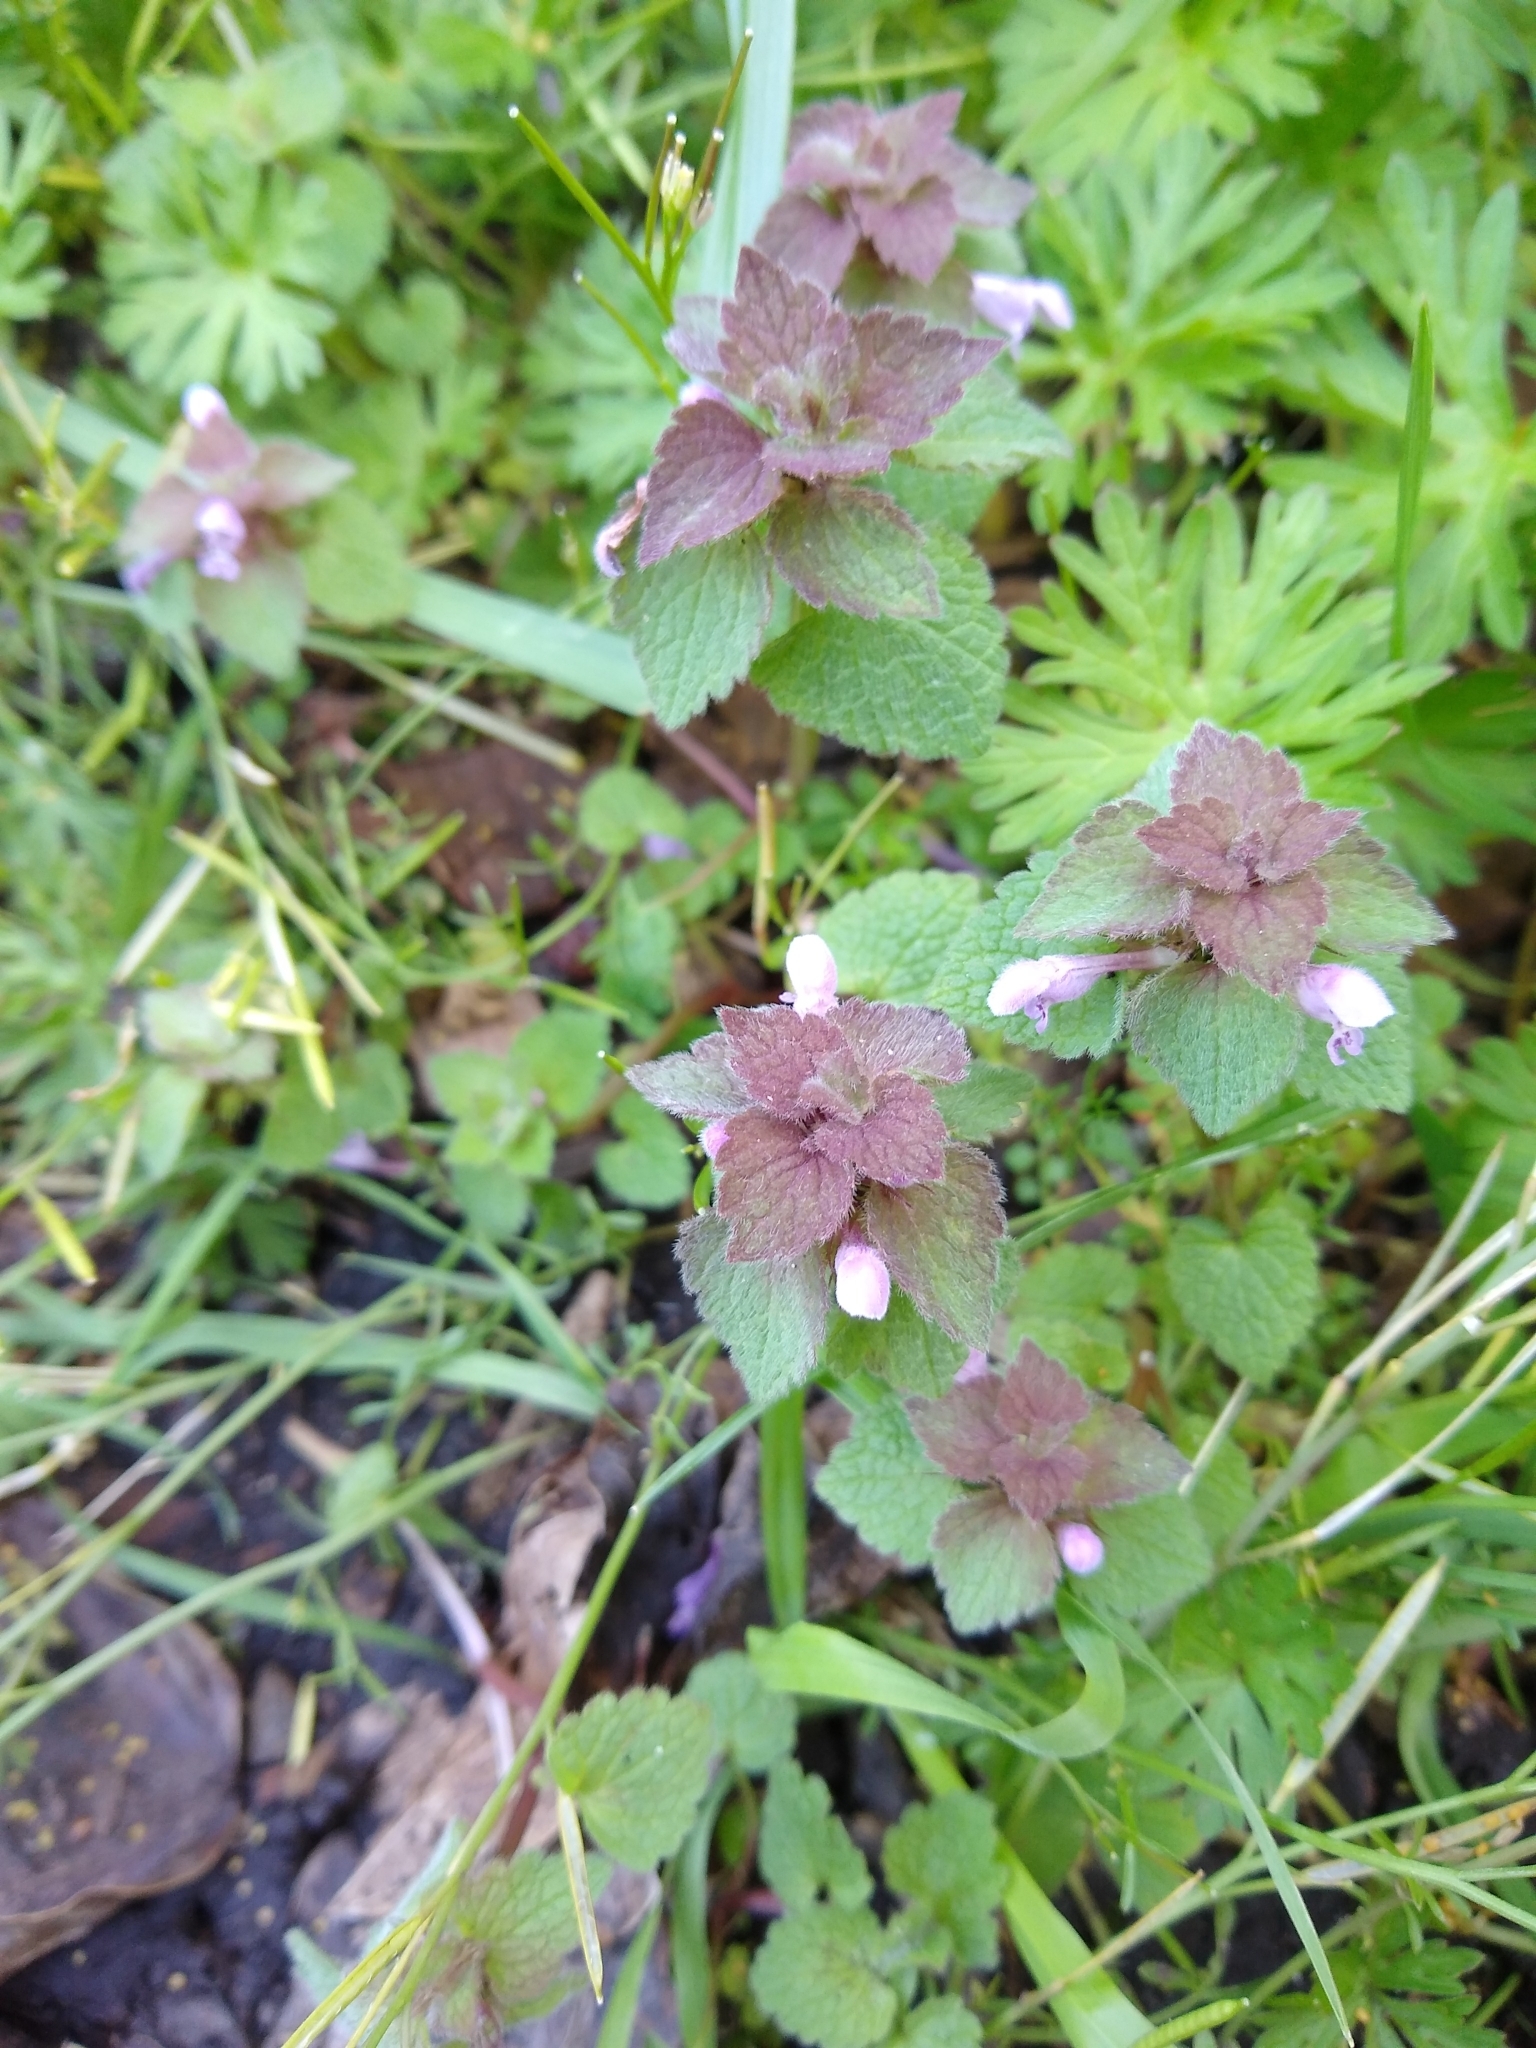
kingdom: Plantae
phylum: Tracheophyta
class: Magnoliopsida
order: Lamiales
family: Lamiaceae
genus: Lamium
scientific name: Lamium purpureum
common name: Red dead-nettle
